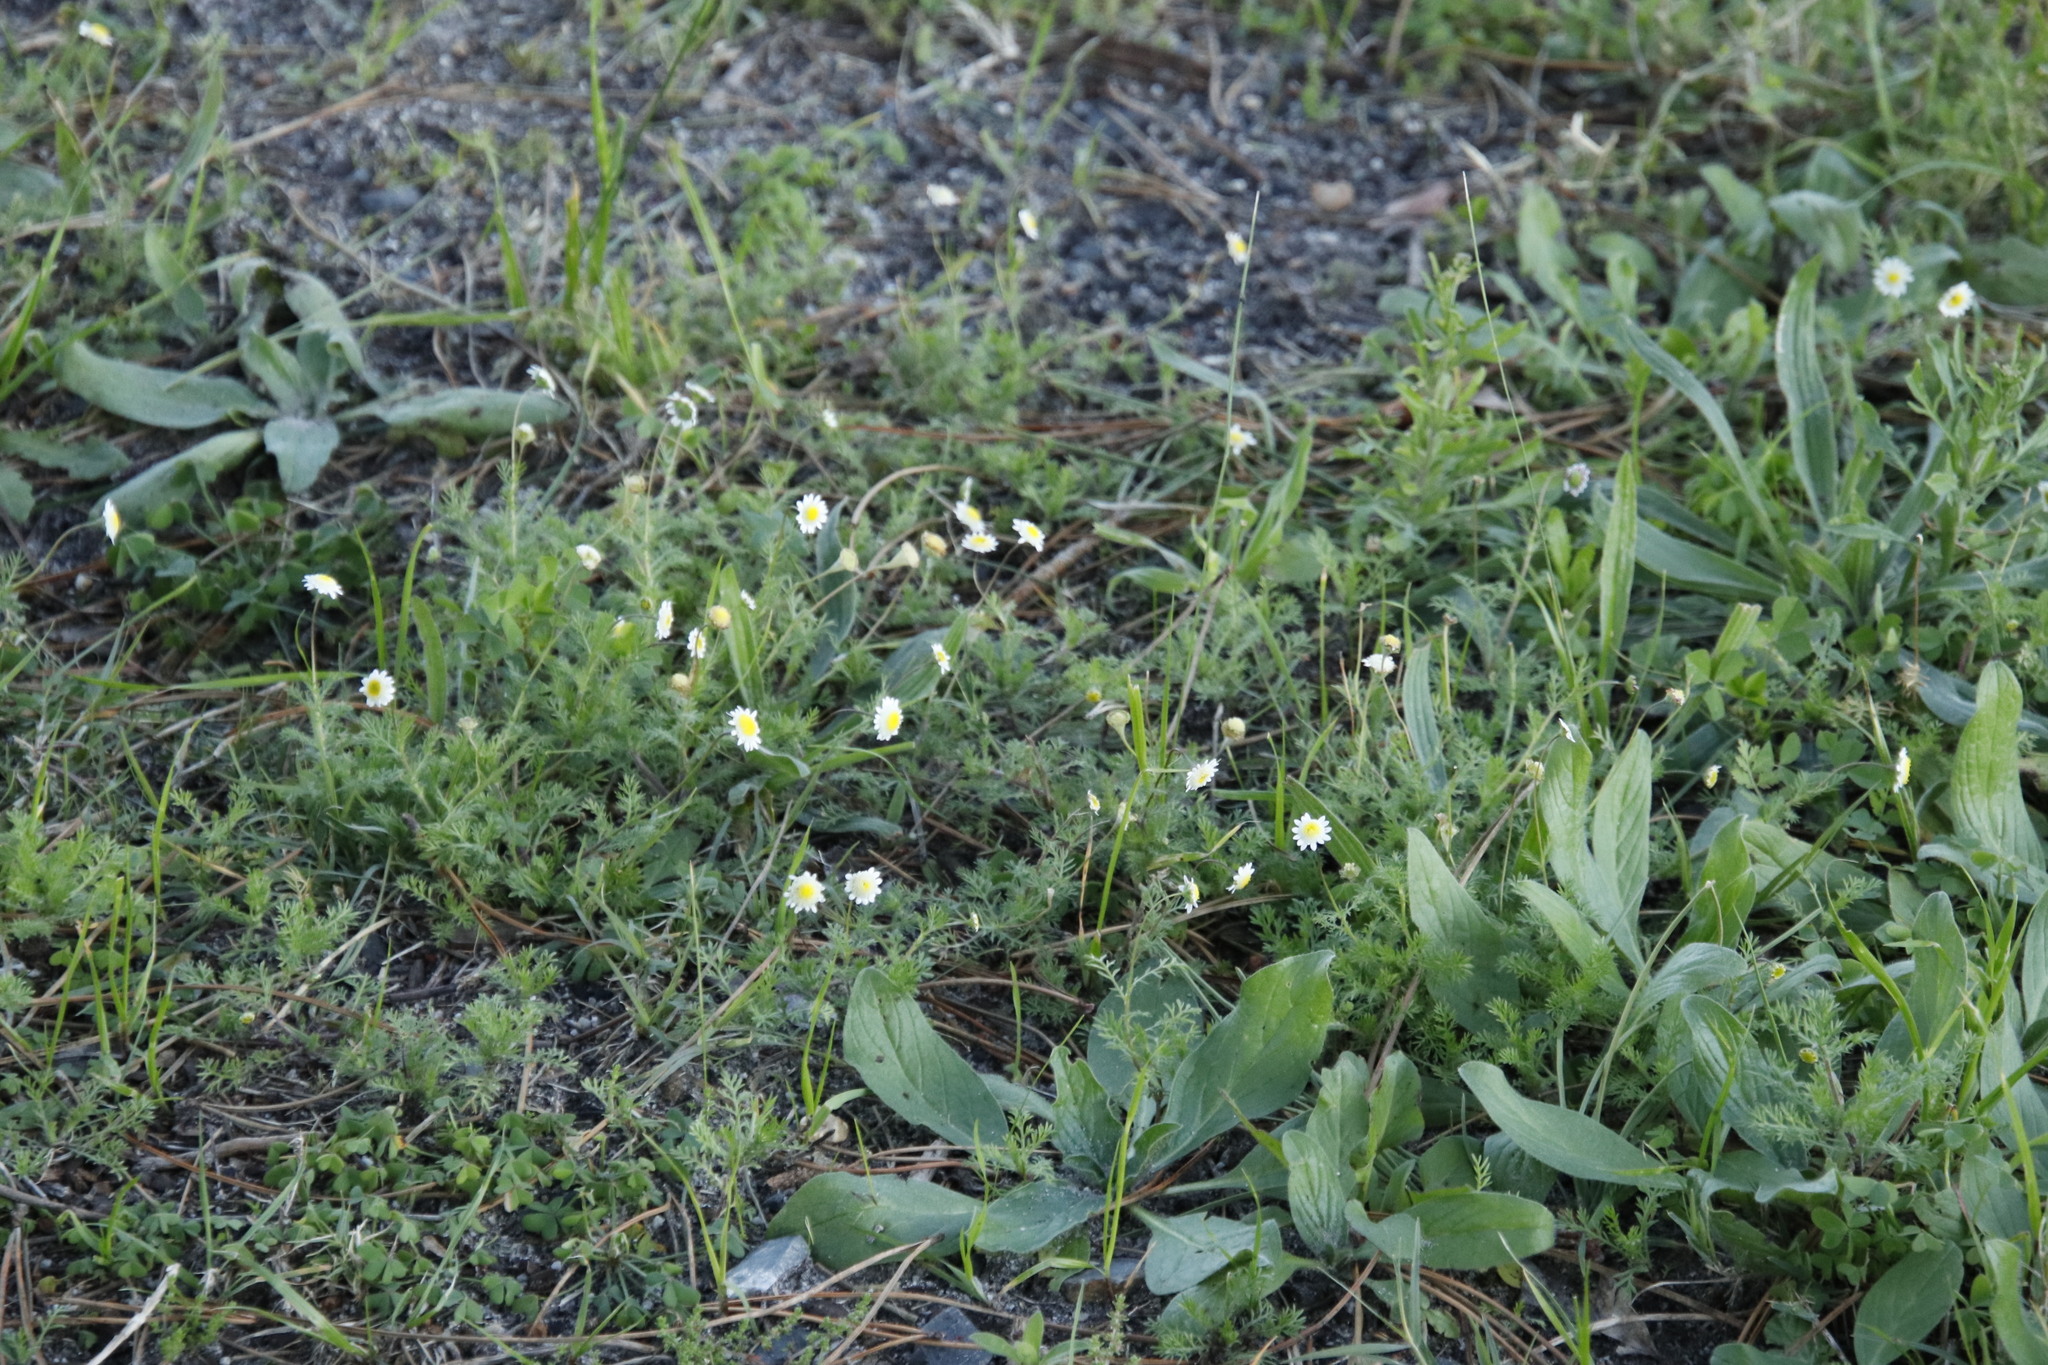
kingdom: Plantae
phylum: Tracheophyta
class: Magnoliopsida
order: Asterales
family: Asteraceae
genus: Cotula
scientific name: Cotula turbinata
